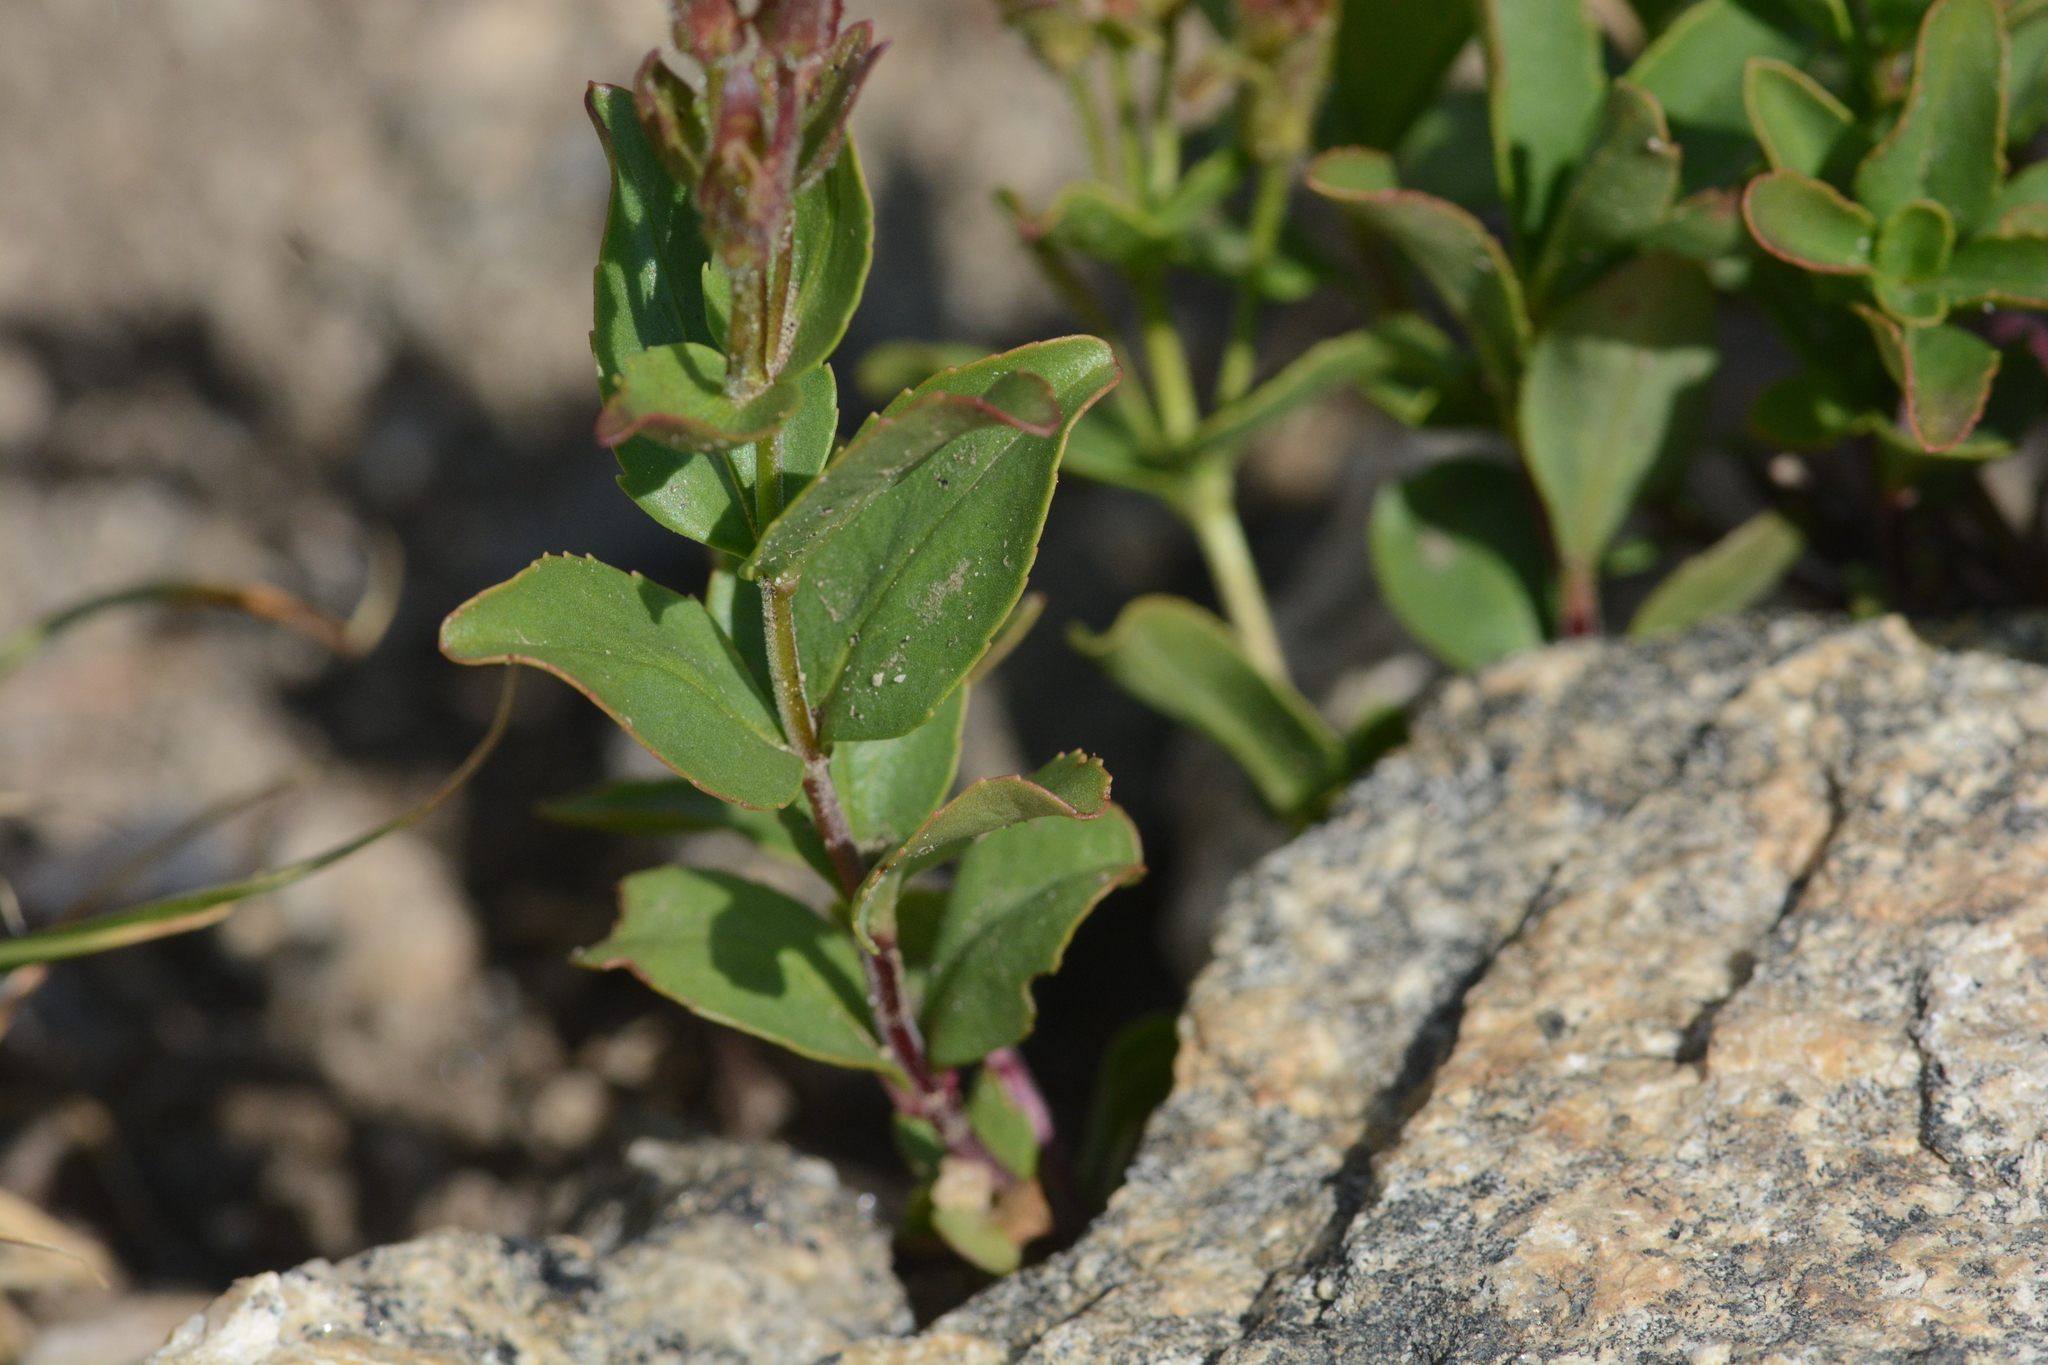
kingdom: Plantae
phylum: Tracheophyta
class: Magnoliopsida
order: Lamiales
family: Plantaginaceae
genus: Penstemon
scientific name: Penstemon ellipticus
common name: Alpine beardtongue
